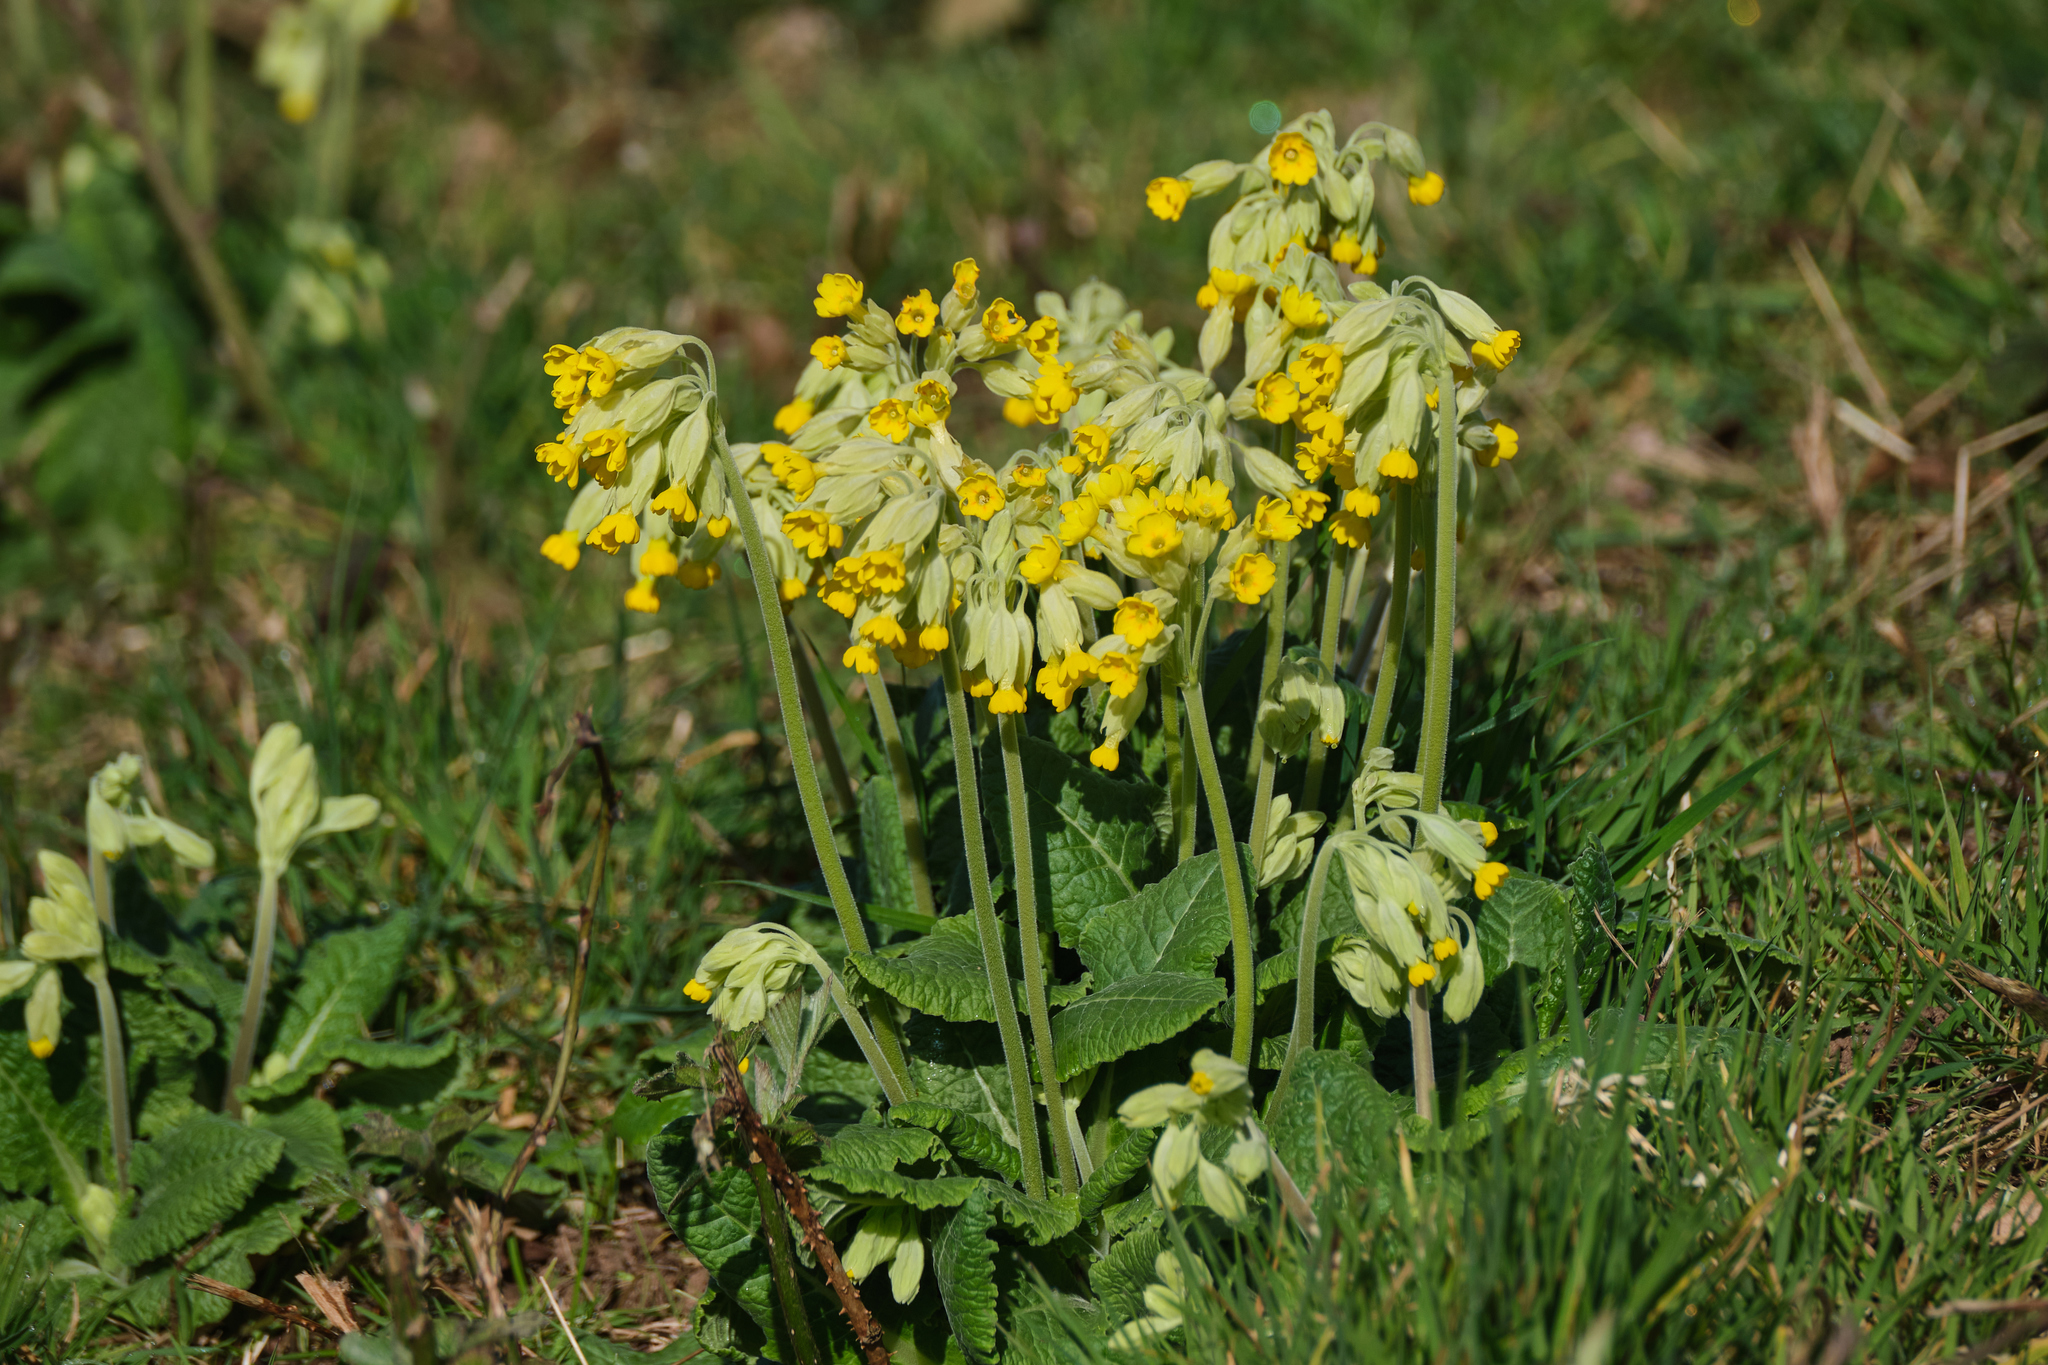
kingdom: Plantae
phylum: Tracheophyta
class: Magnoliopsida
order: Ericales
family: Primulaceae
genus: Primula
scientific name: Primula veris
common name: Cowslip
